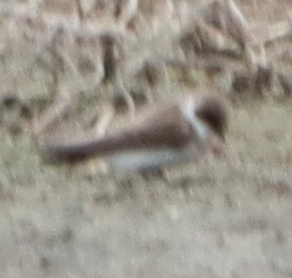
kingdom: Animalia
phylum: Chordata
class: Aves
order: Passeriformes
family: Hirundinidae
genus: Riparia
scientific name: Riparia riparia
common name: Sand martin
